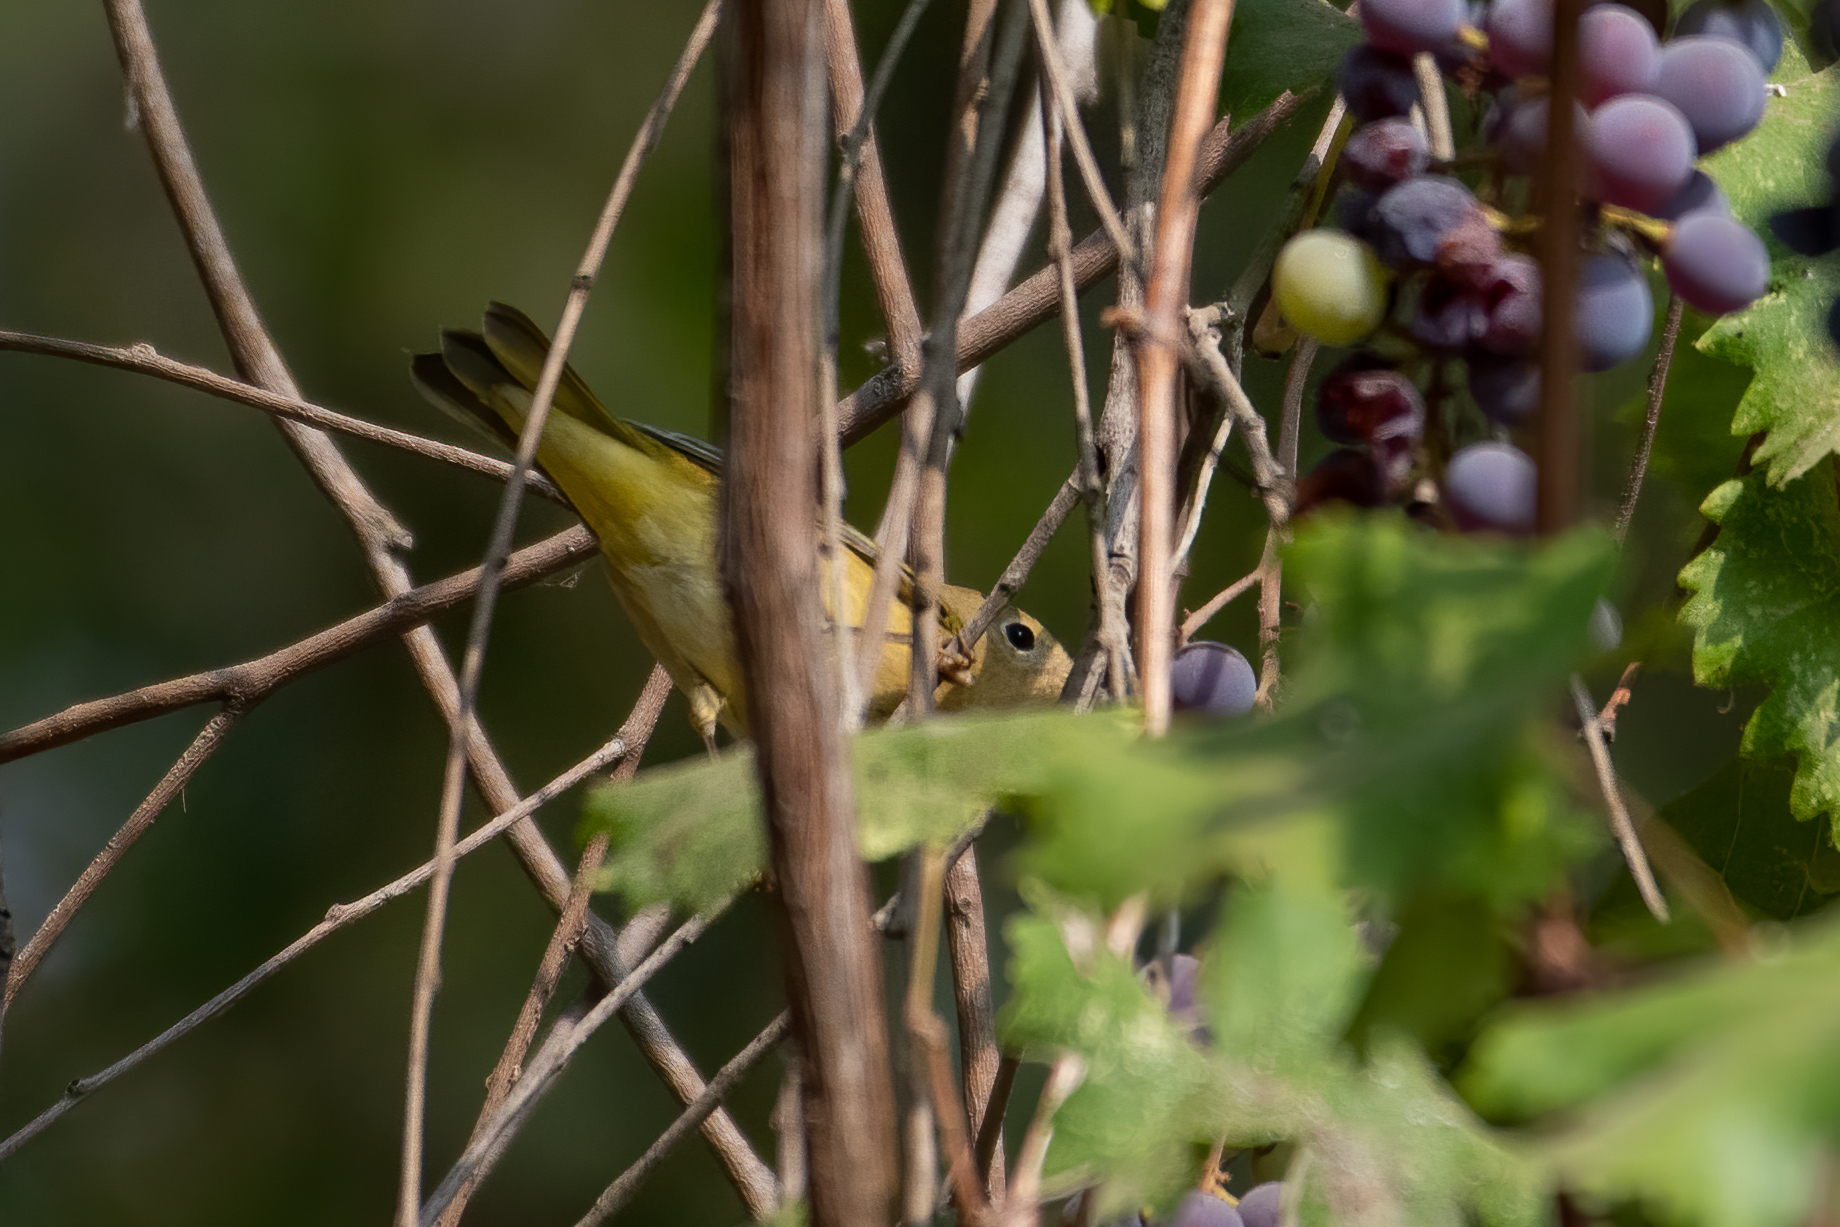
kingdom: Animalia
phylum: Chordata
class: Aves
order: Passeriformes
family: Parulidae
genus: Setophaga
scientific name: Setophaga petechia
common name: Yellow warbler
